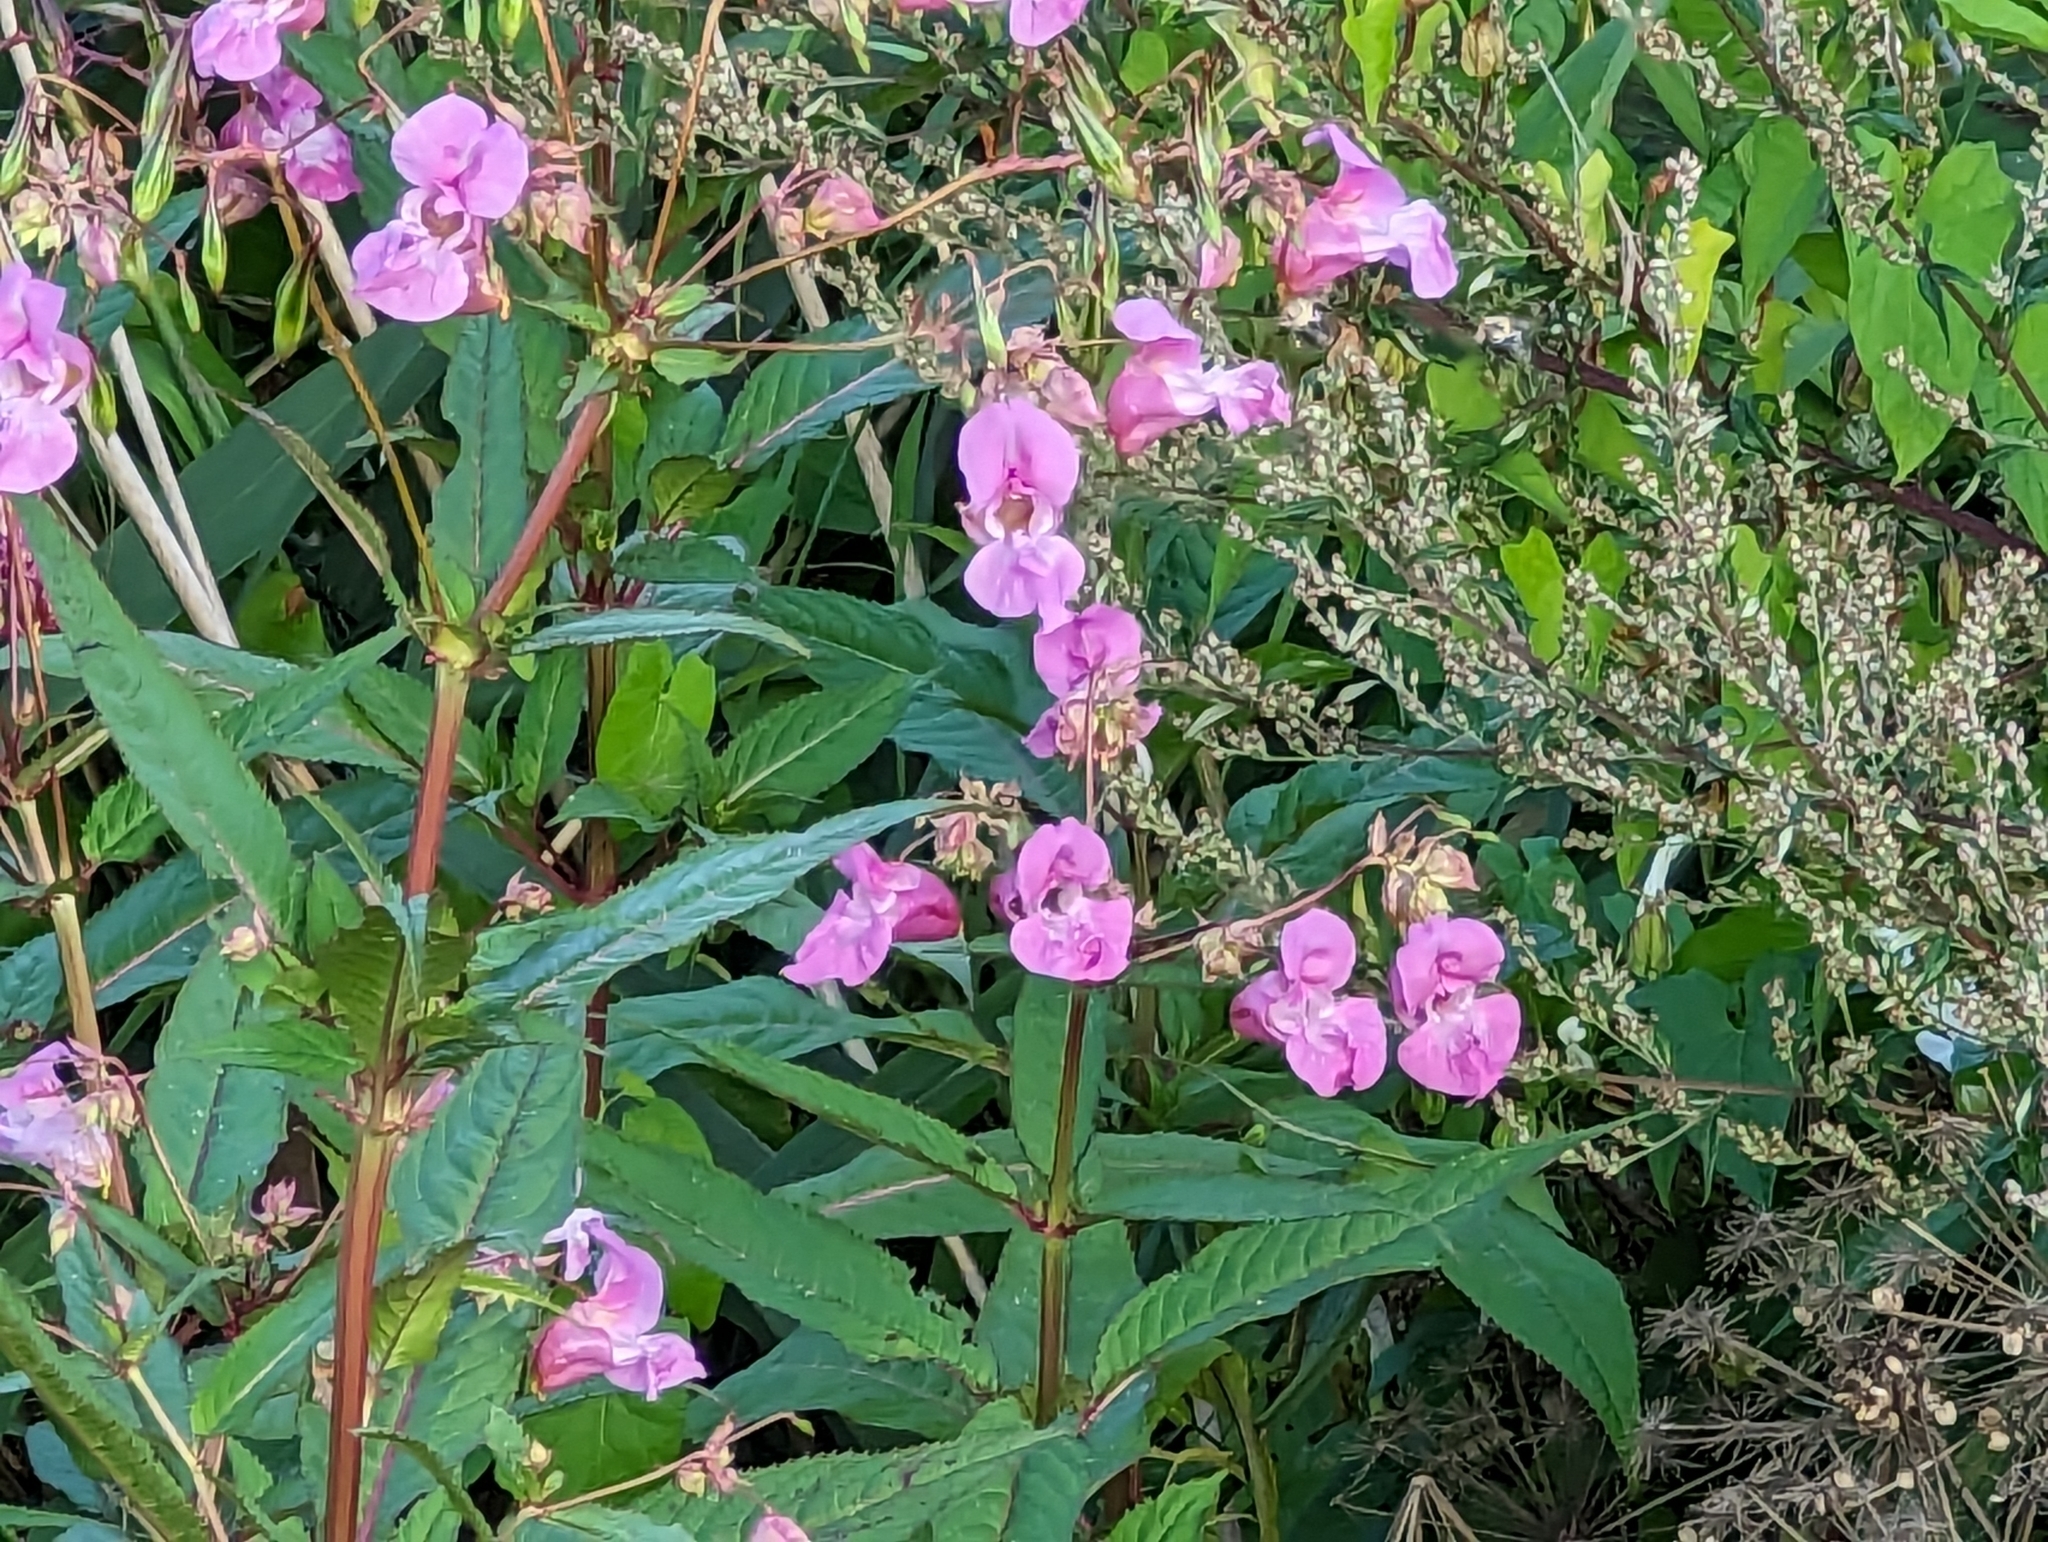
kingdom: Plantae
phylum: Tracheophyta
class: Magnoliopsida
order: Ericales
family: Balsaminaceae
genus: Impatiens
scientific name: Impatiens glandulifera
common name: Himalayan balsam
